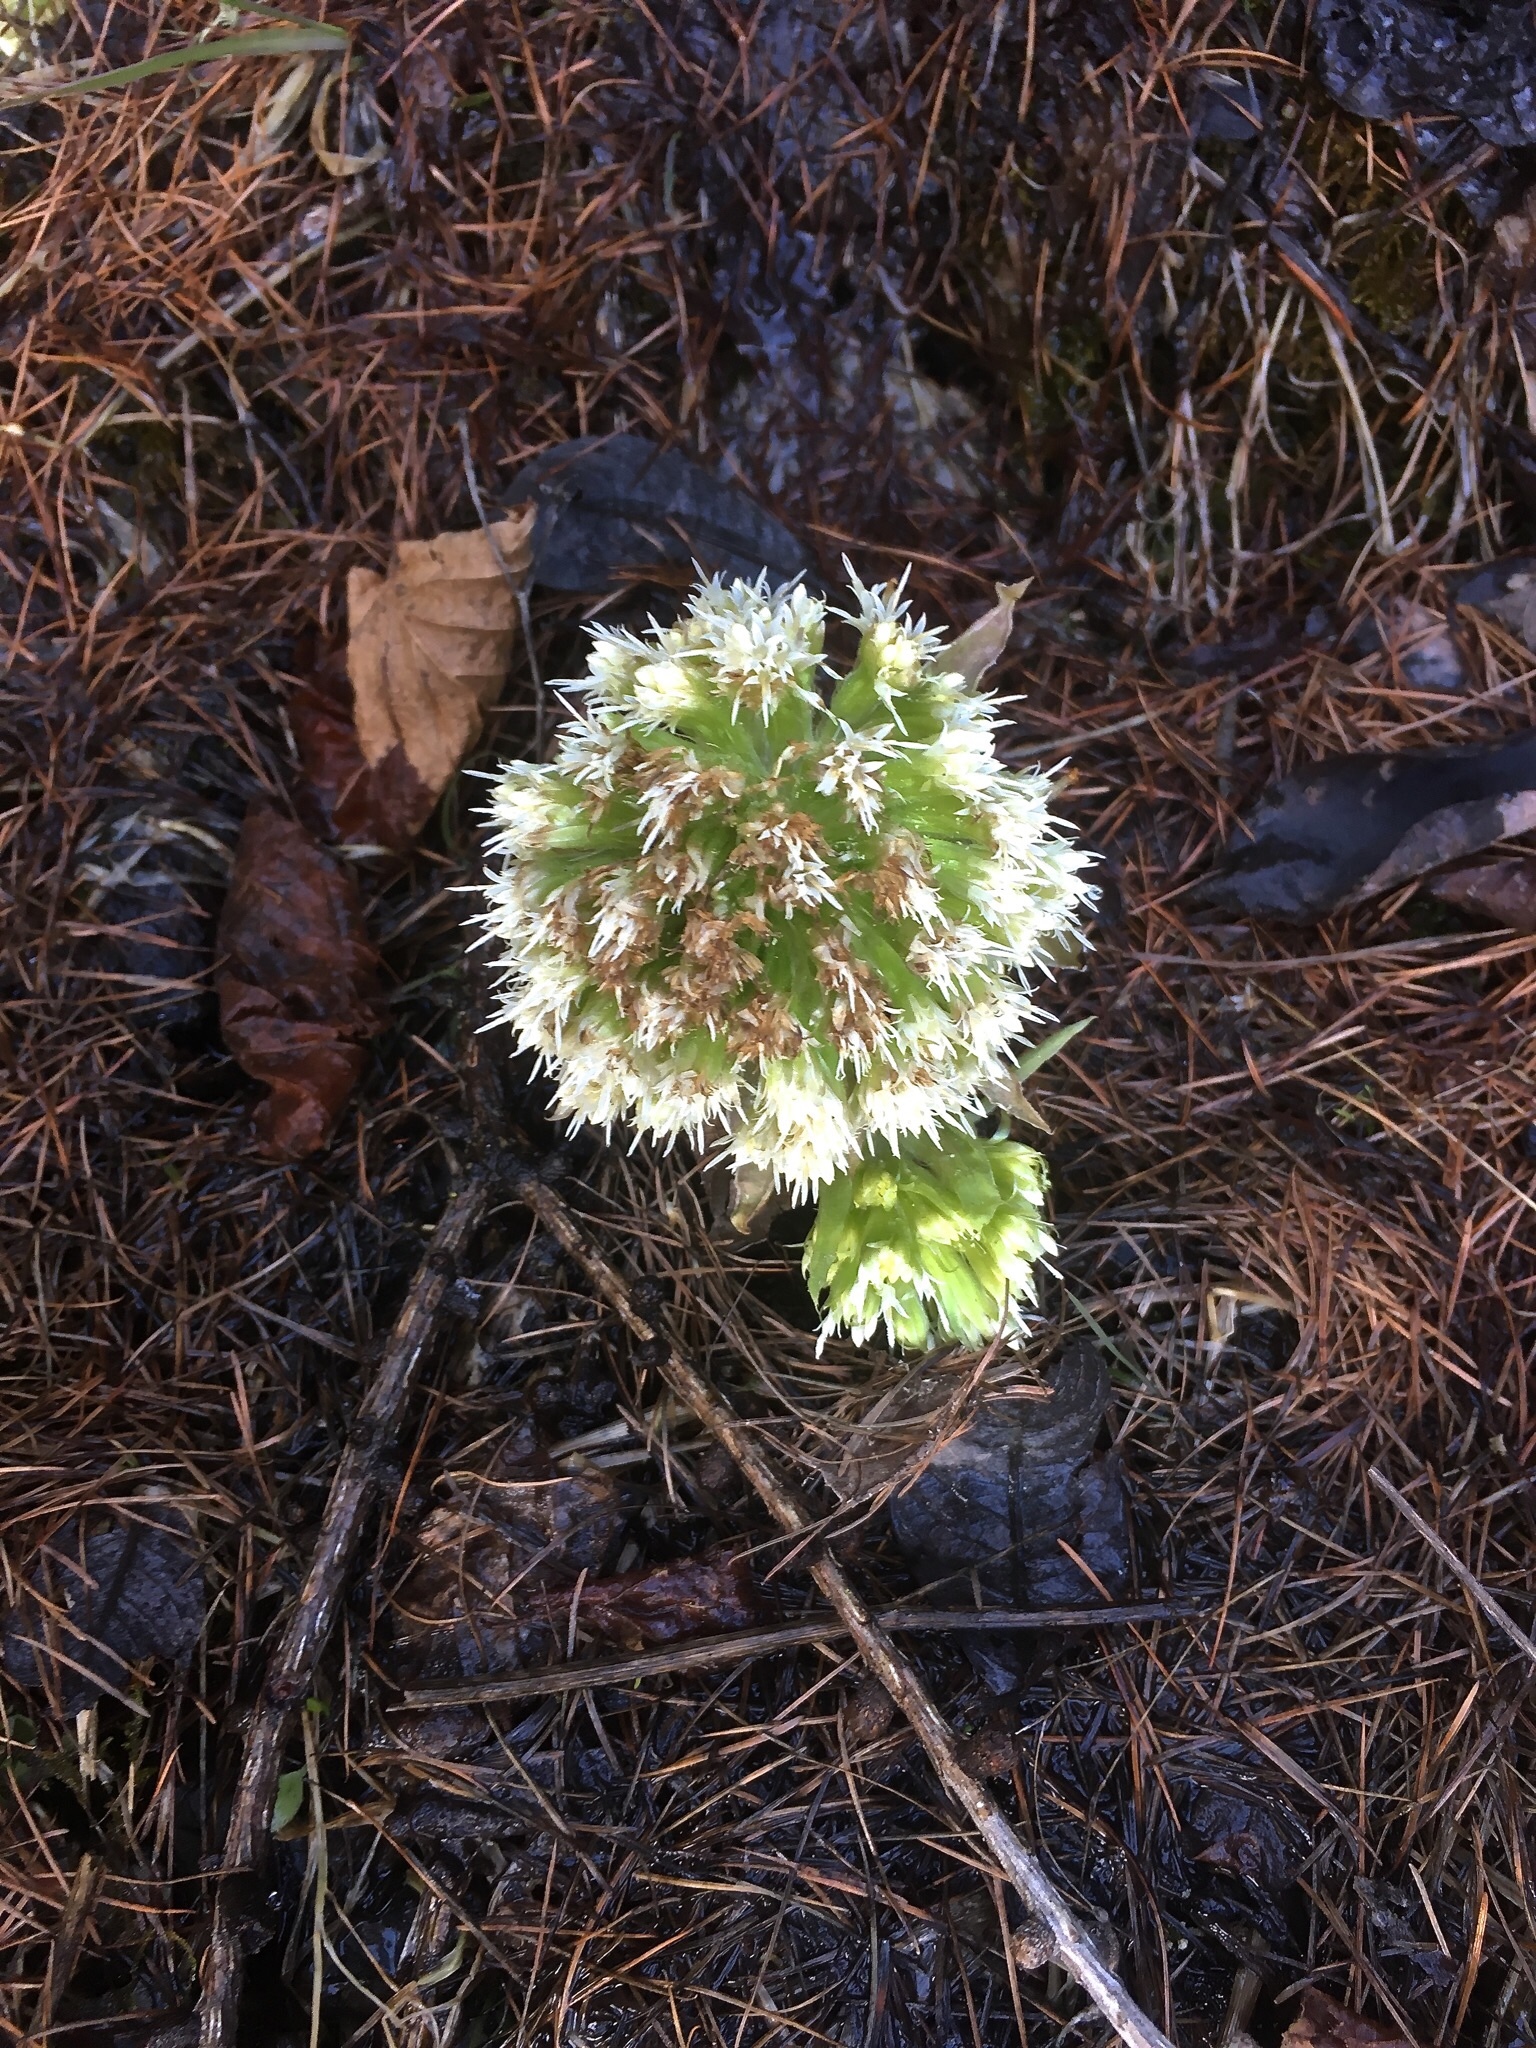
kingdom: Plantae
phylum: Tracheophyta
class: Magnoliopsida
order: Asterales
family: Asteraceae
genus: Petasites
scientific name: Petasites albus
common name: White butterbur
